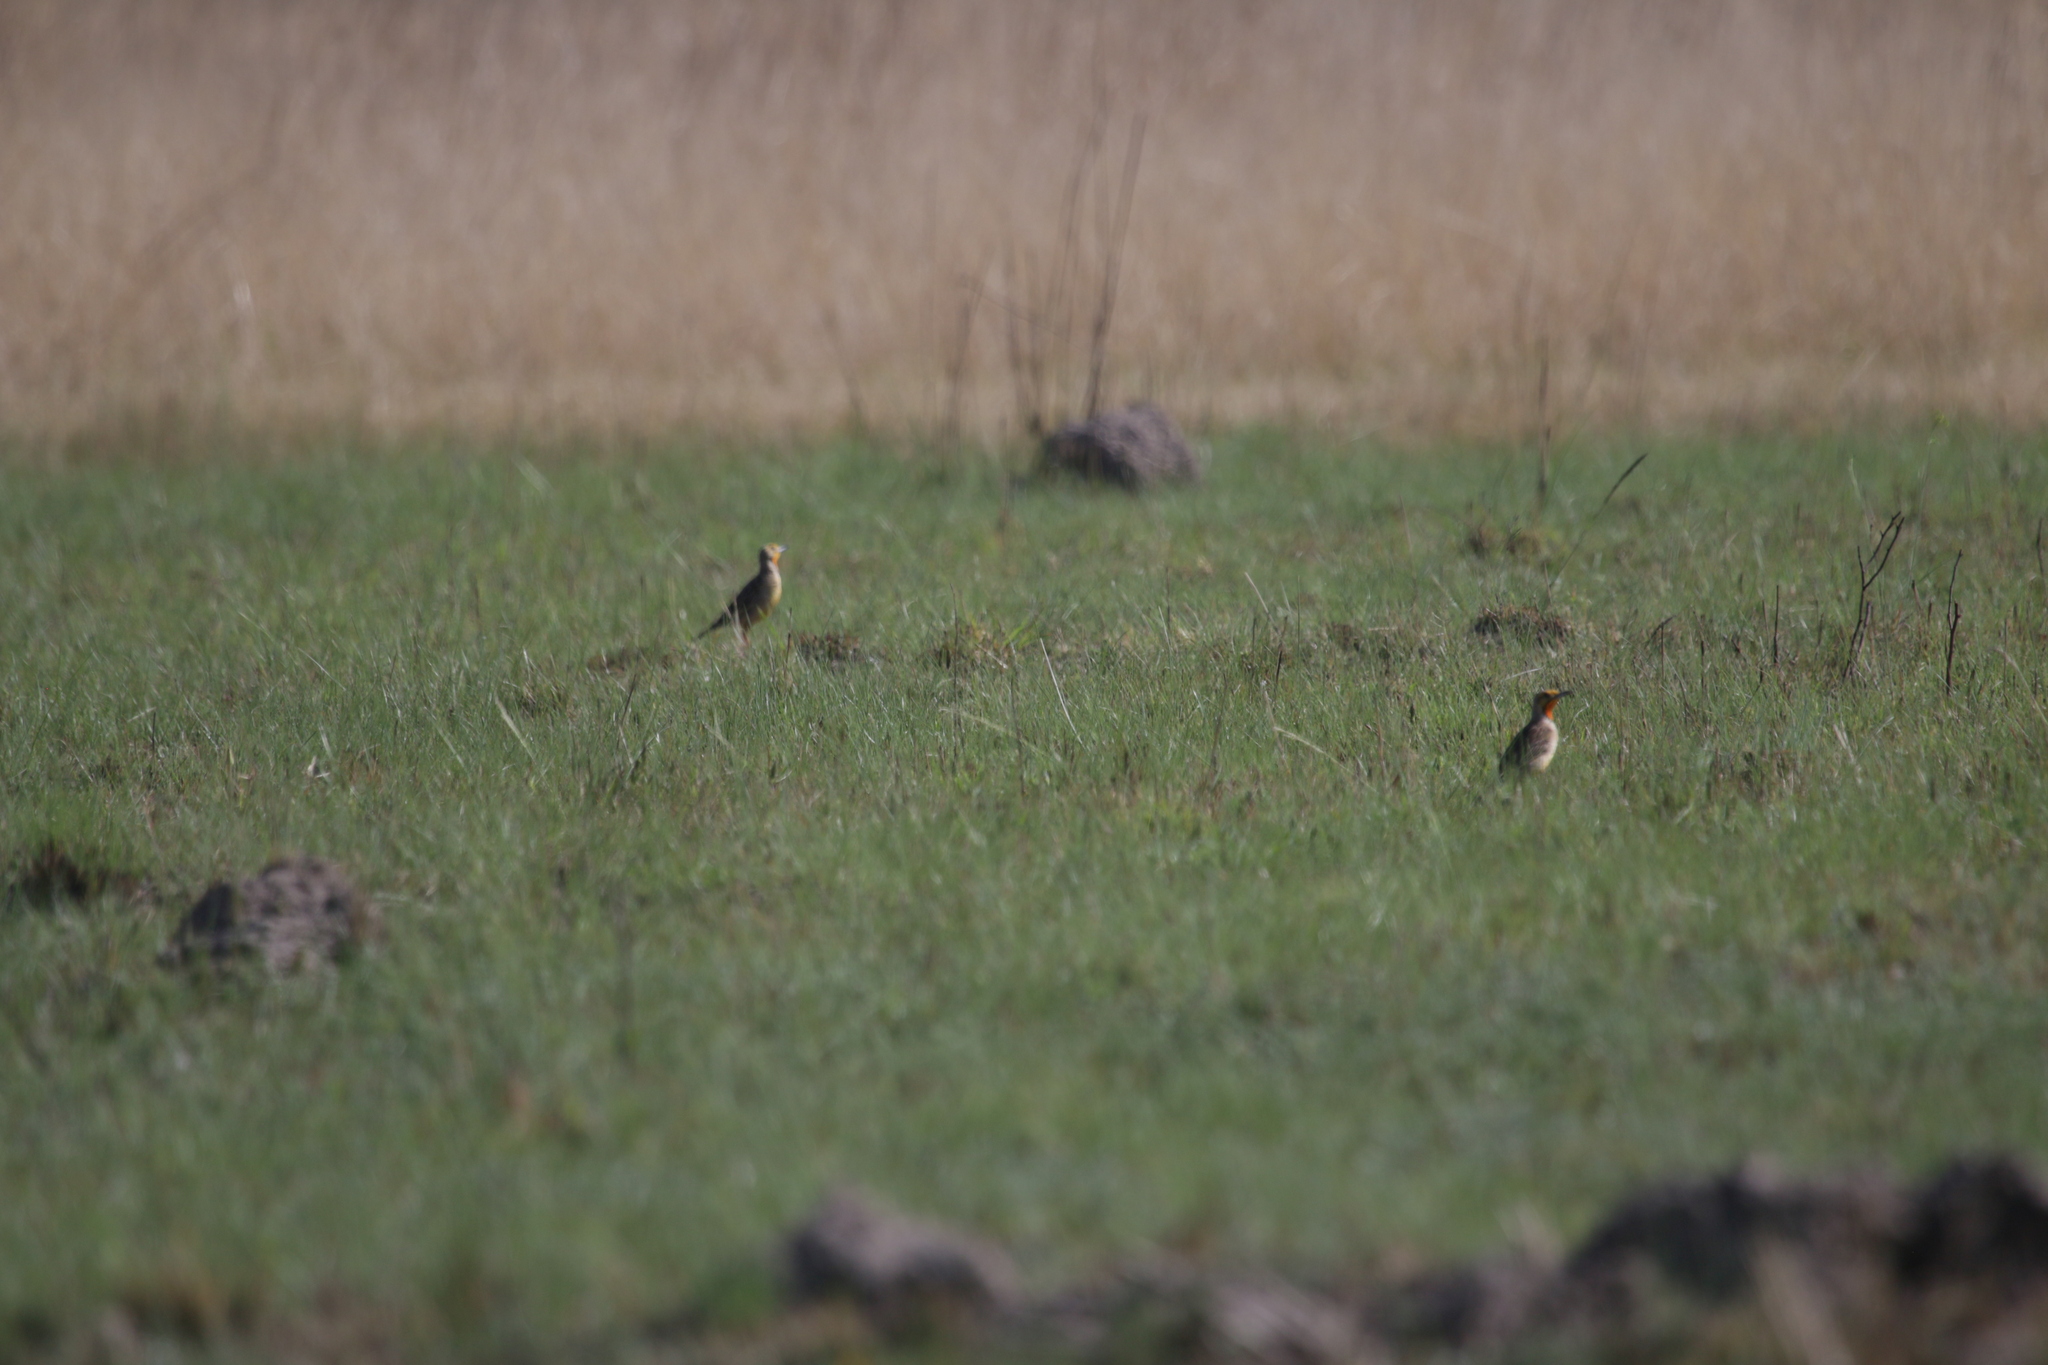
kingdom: Animalia
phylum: Chordata
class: Aves
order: Passeriformes
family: Motacillidae
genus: Macronyx
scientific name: Macronyx capensis
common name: Cape longclaw
